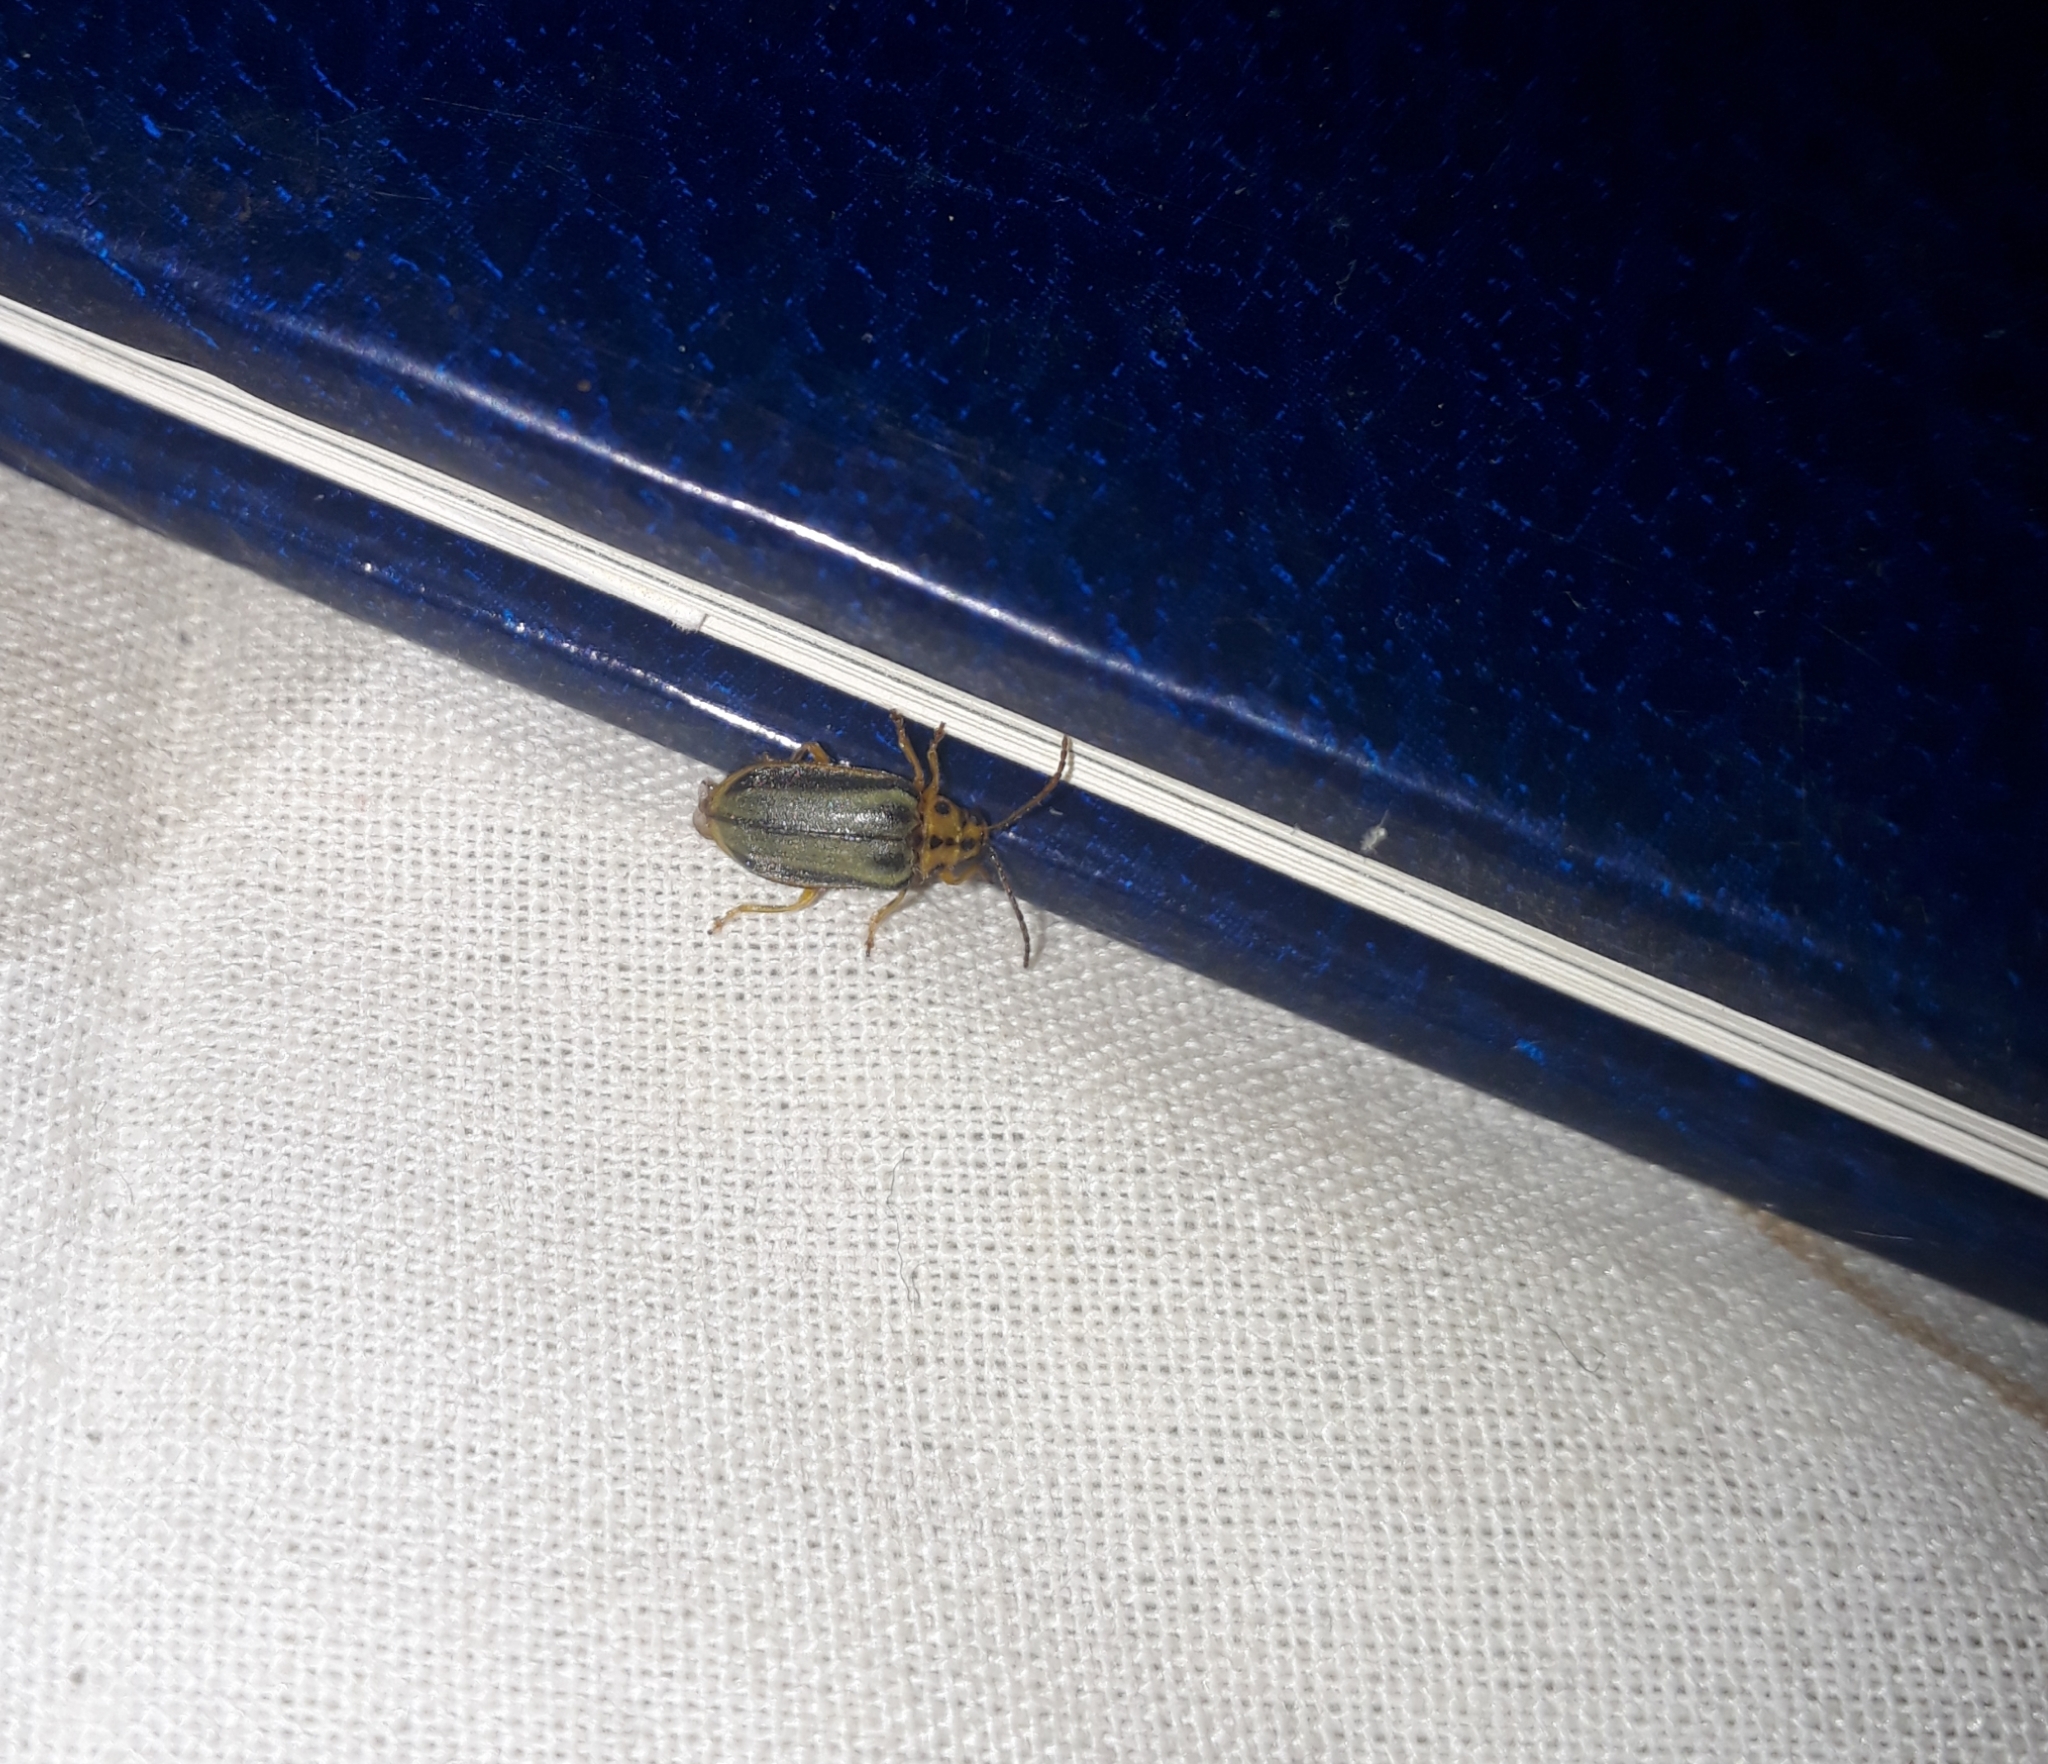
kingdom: Animalia
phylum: Arthropoda
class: Insecta
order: Coleoptera
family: Chrysomelidae
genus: Xanthogaleruca
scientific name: Xanthogaleruca luteola
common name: Elm leaf beetle
